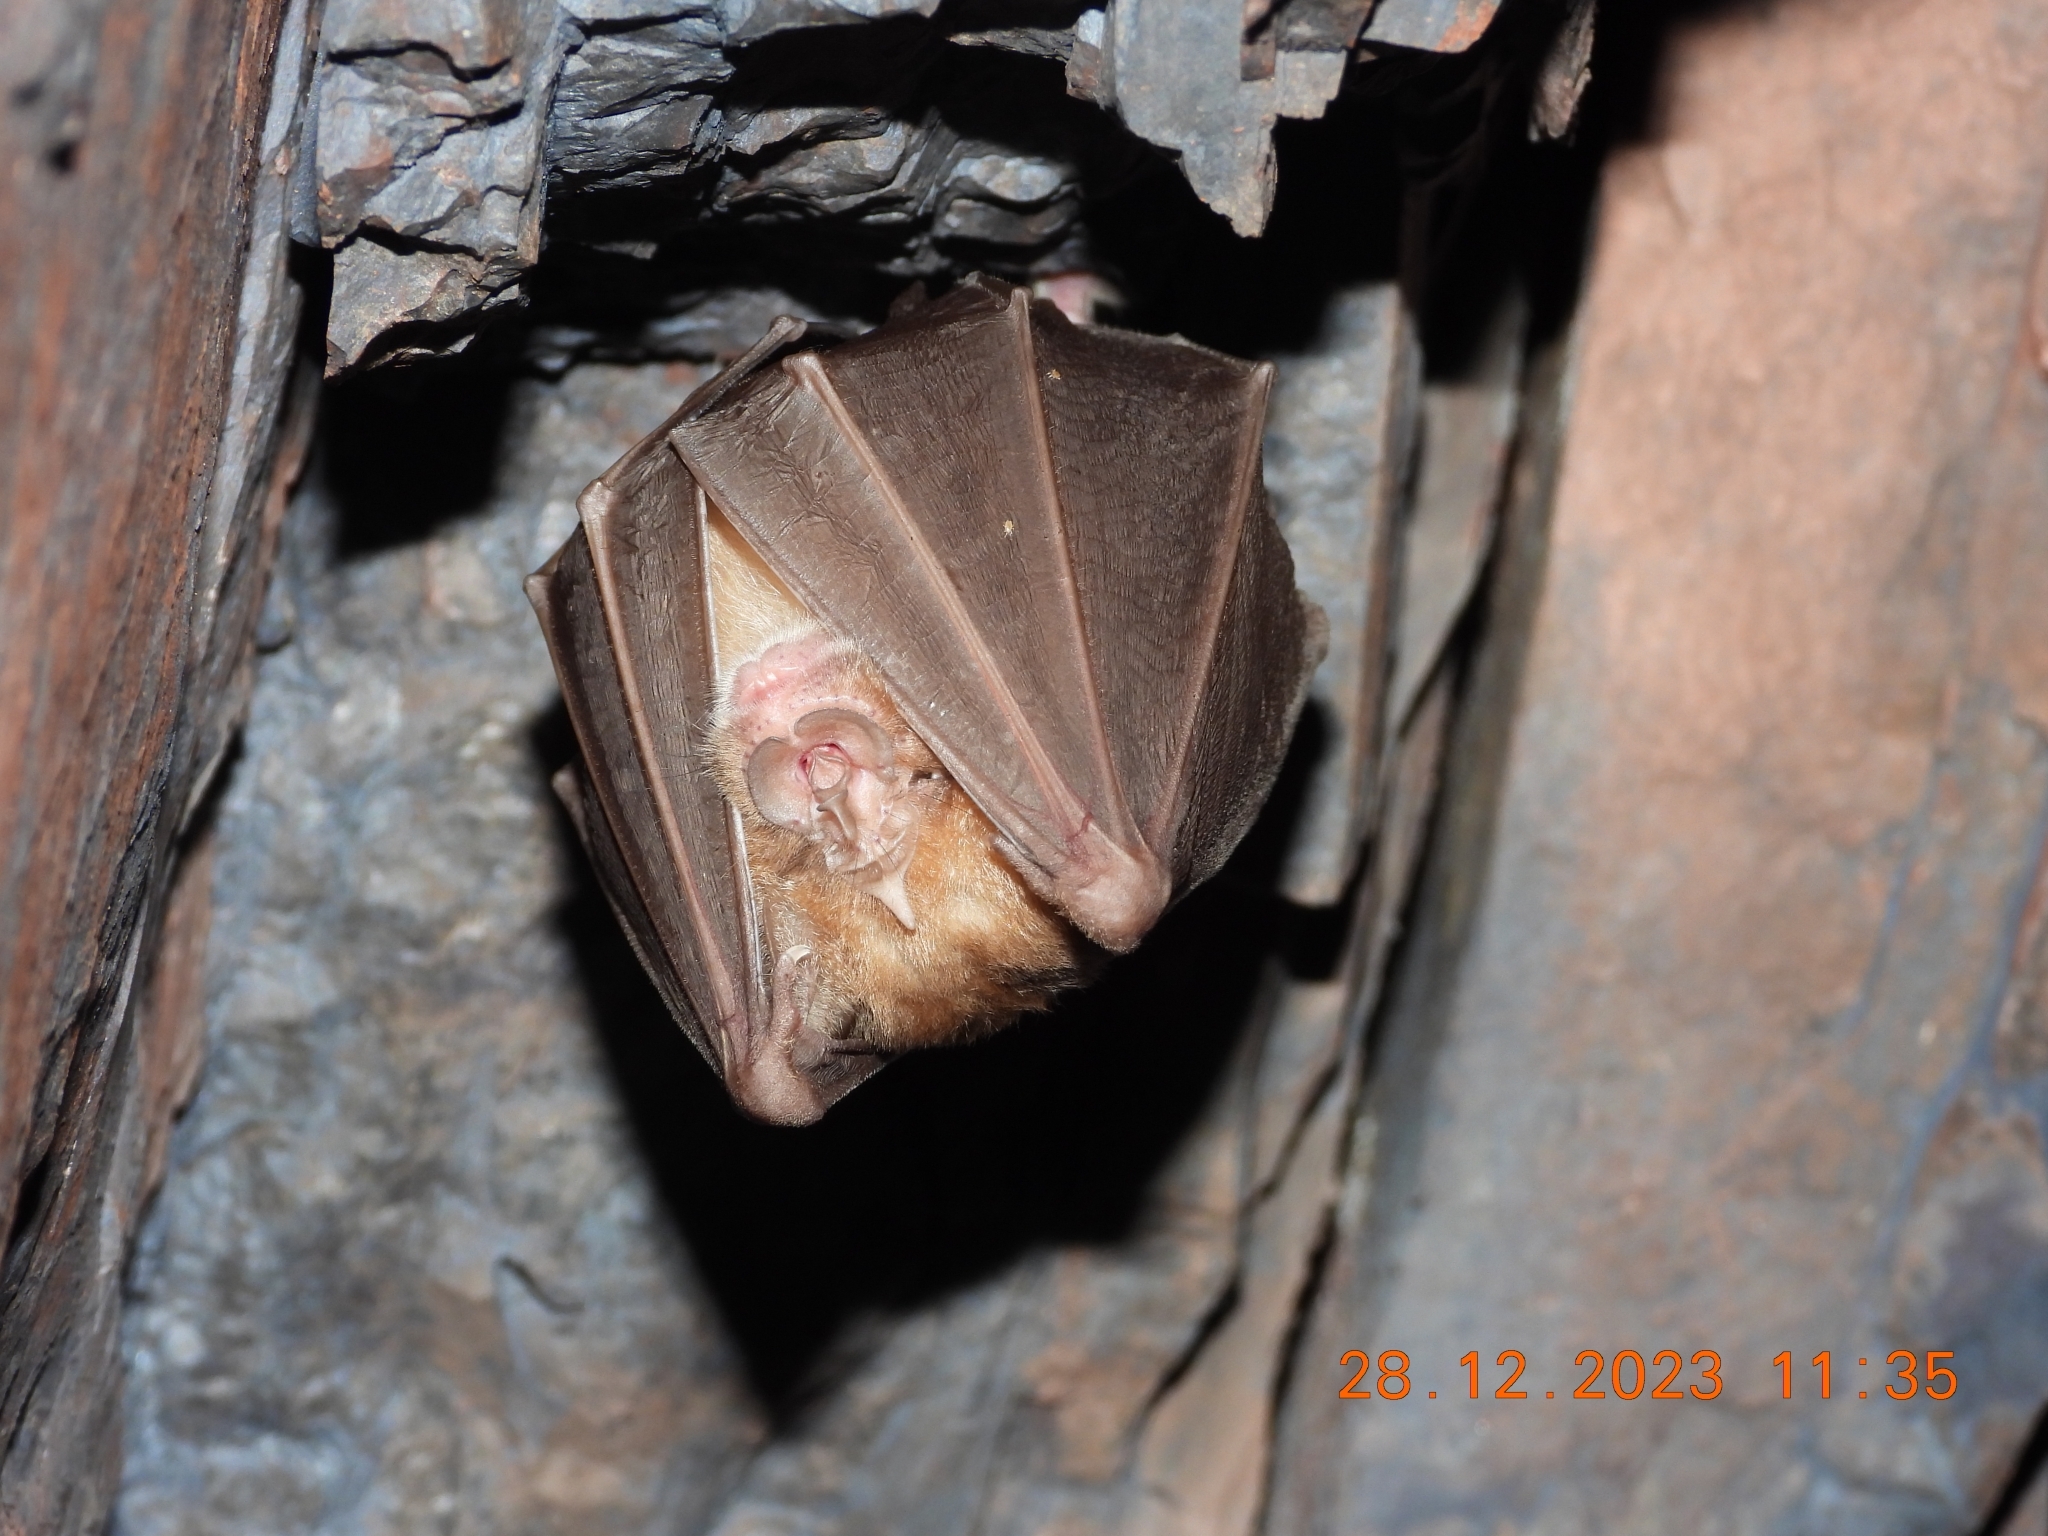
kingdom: Animalia
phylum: Chordata
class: Mammalia
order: Chiroptera
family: Rhinolophidae
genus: Rhinolophus
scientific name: Rhinolophus ferrumequinum
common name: Greater horseshoe bat
